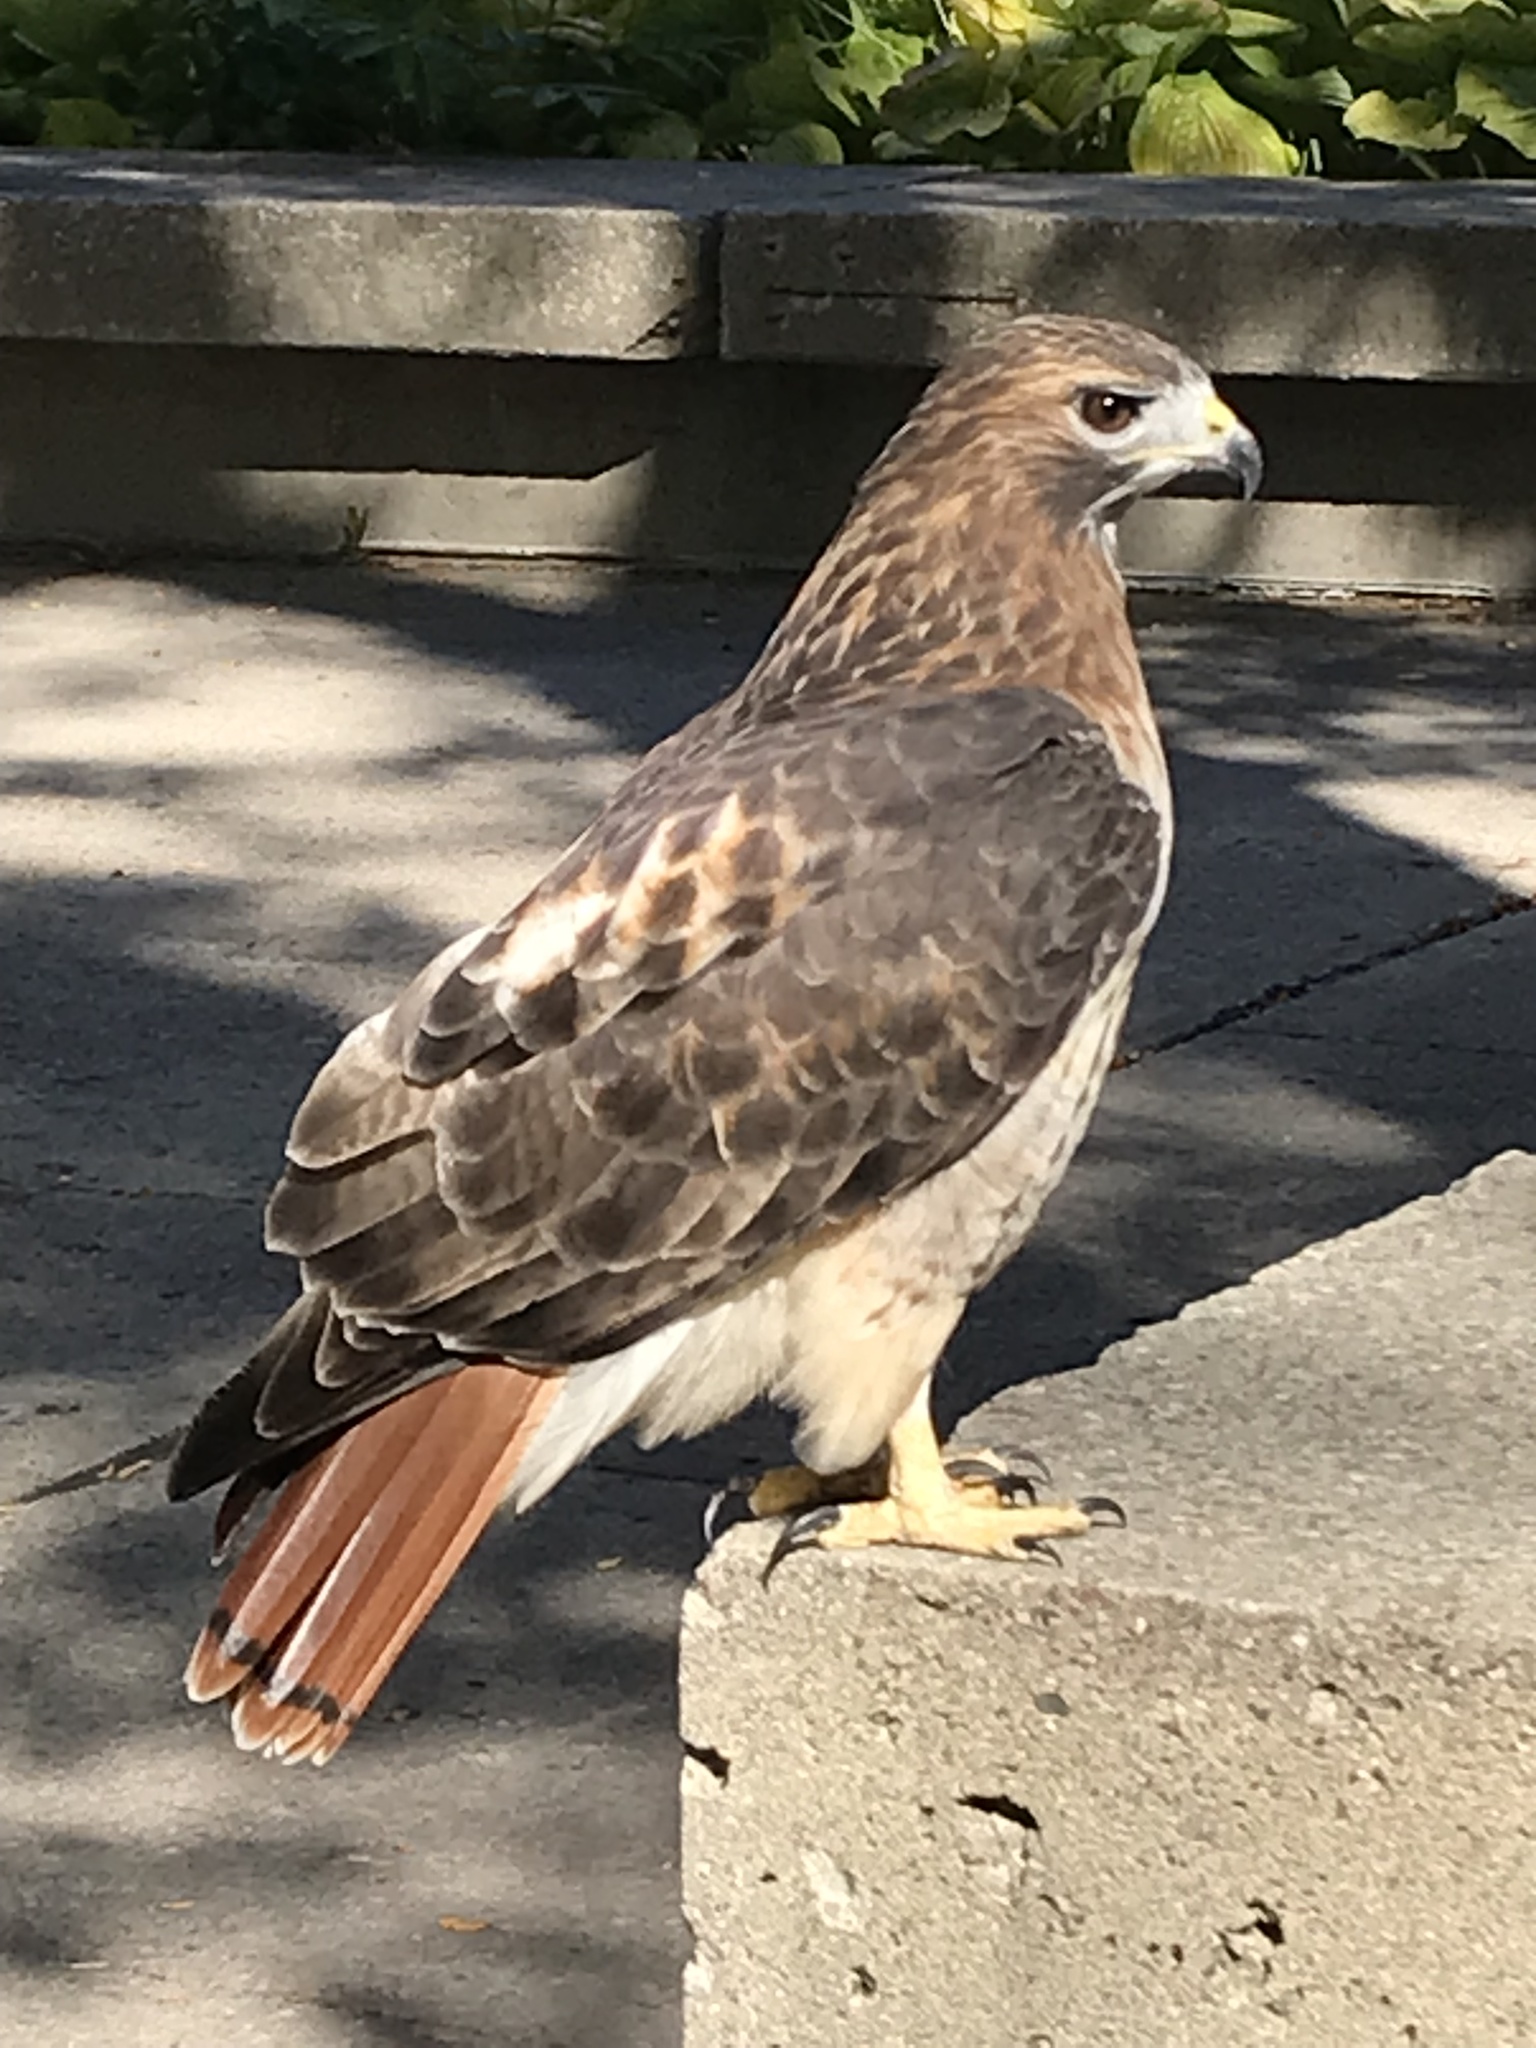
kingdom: Animalia
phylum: Chordata
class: Aves
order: Accipitriformes
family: Accipitridae
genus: Buteo
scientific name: Buteo jamaicensis
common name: Red-tailed hawk
